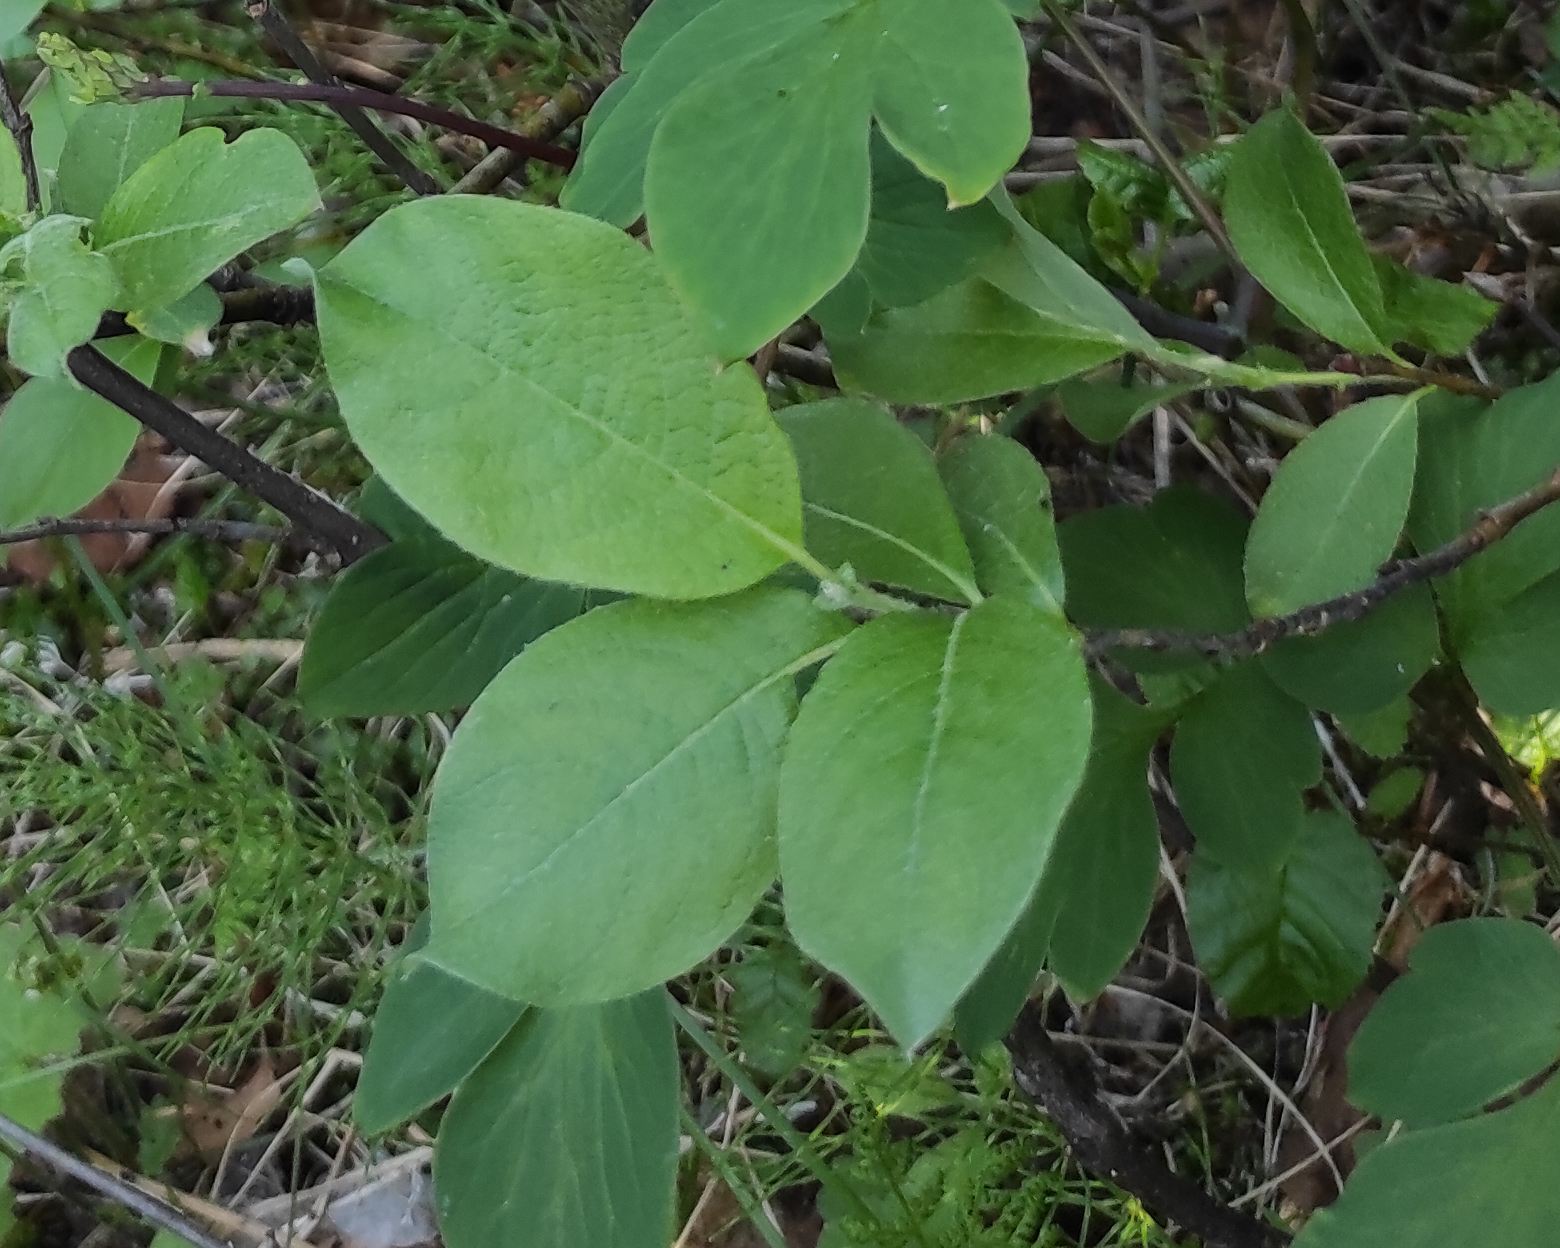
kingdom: Plantae
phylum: Tracheophyta
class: Magnoliopsida
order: Malpighiales
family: Salicaceae
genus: Salix
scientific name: Salix caprea
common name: Goat willow
